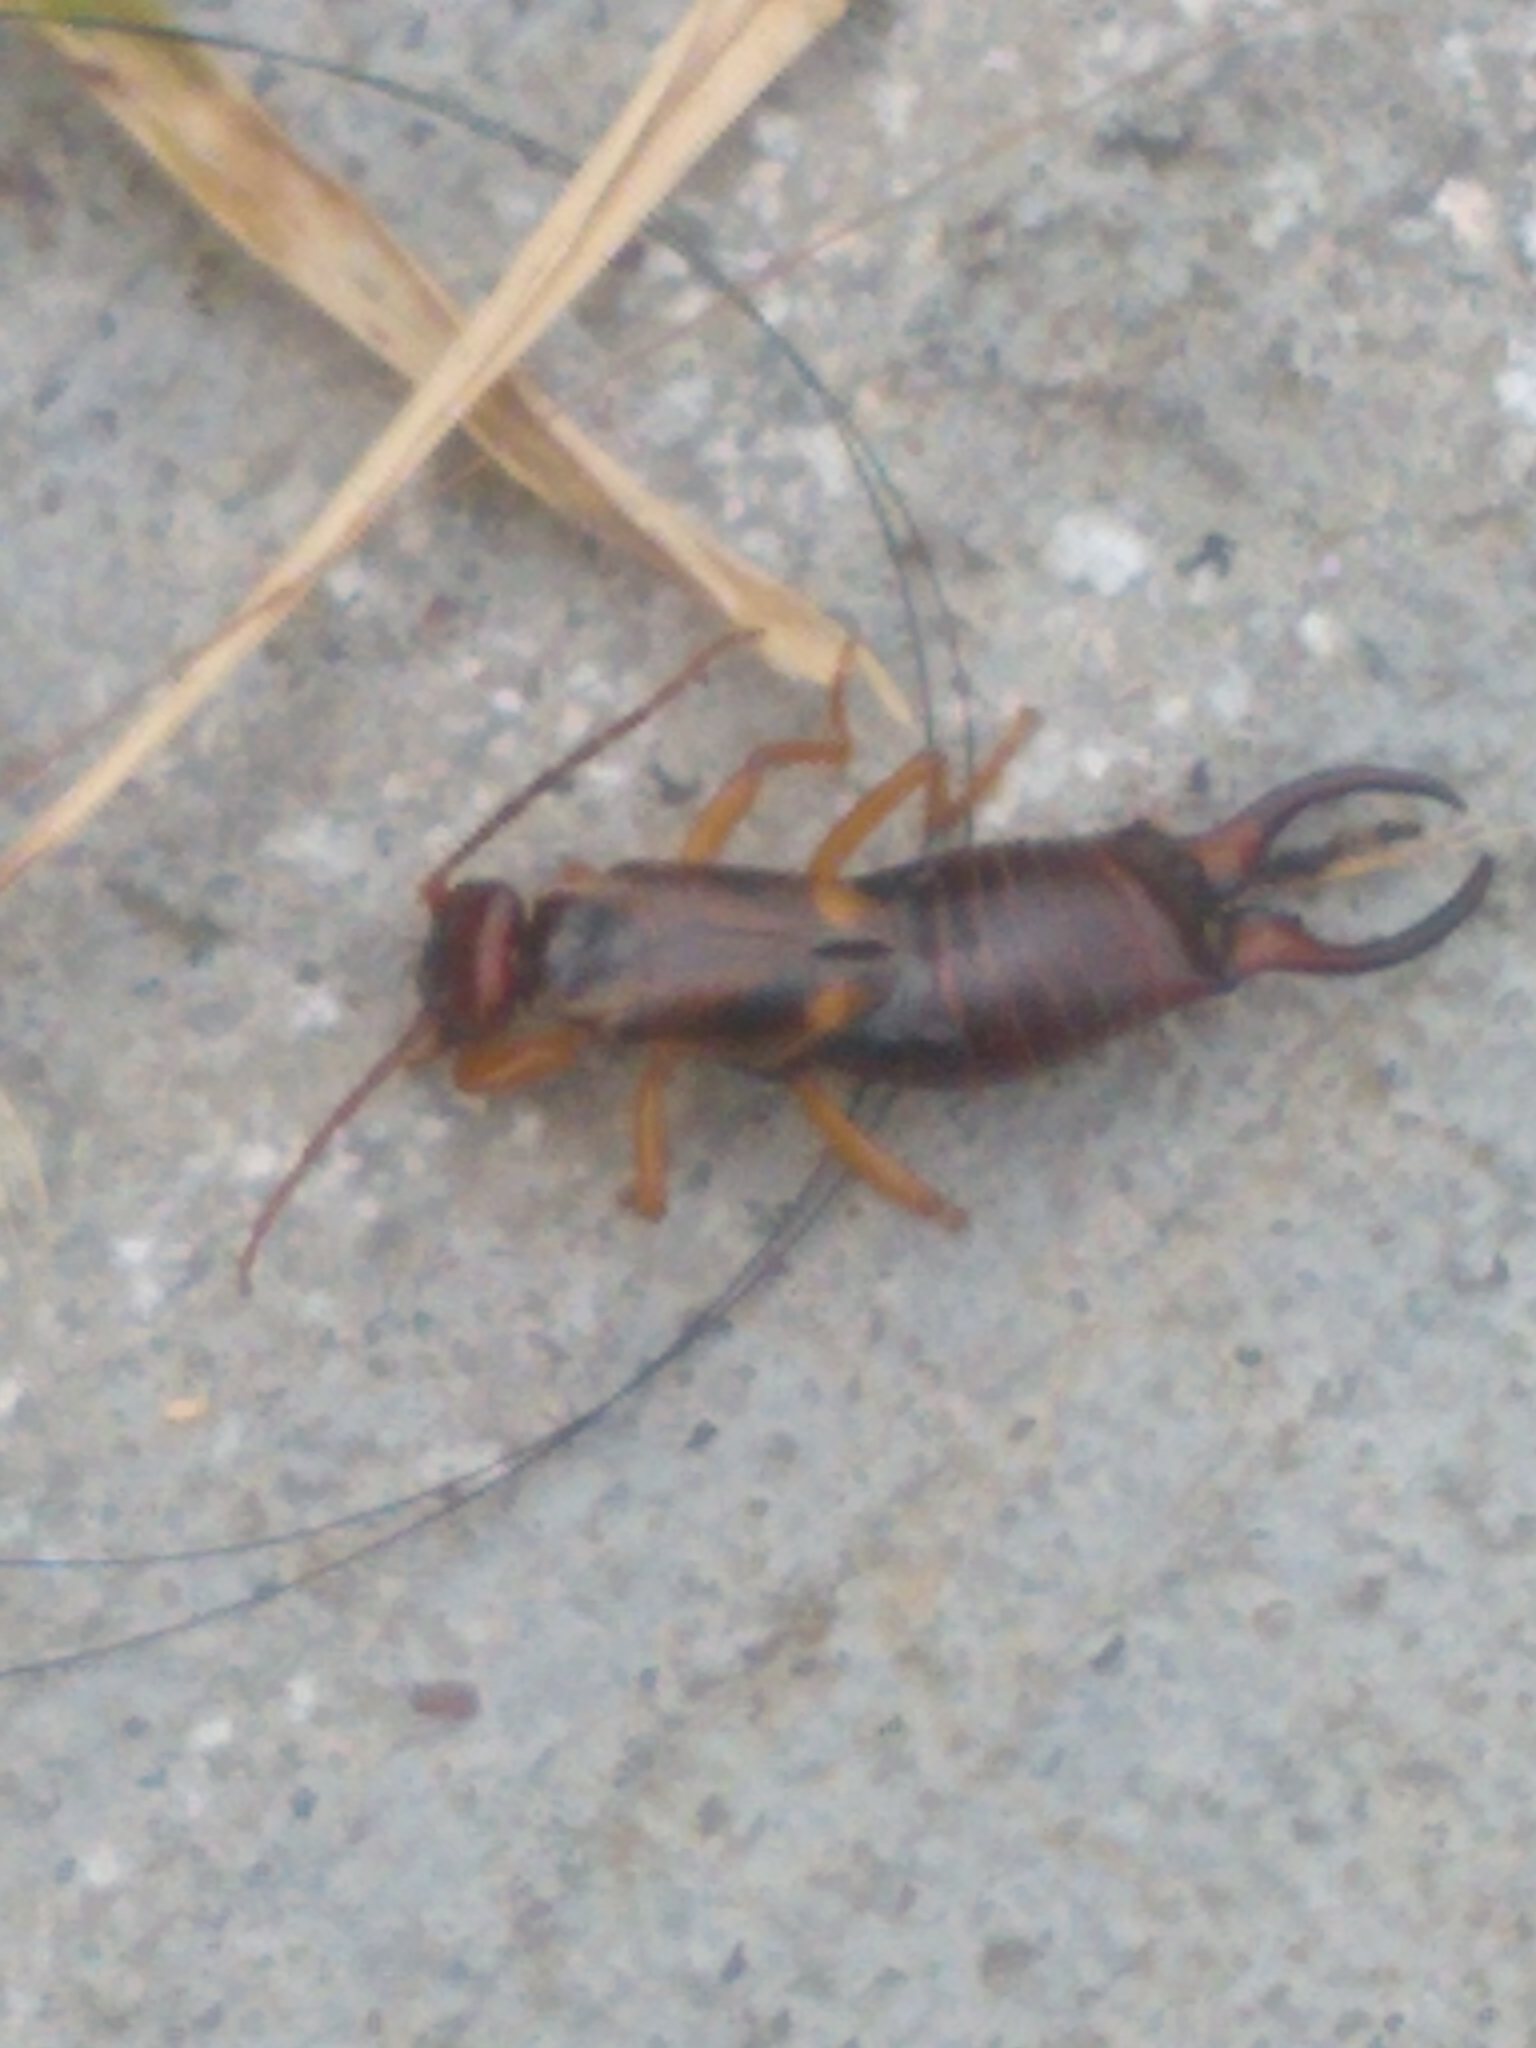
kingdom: Animalia
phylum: Arthropoda
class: Insecta
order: Dermaptera
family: Forficulidae
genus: Forficula
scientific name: Forficula
